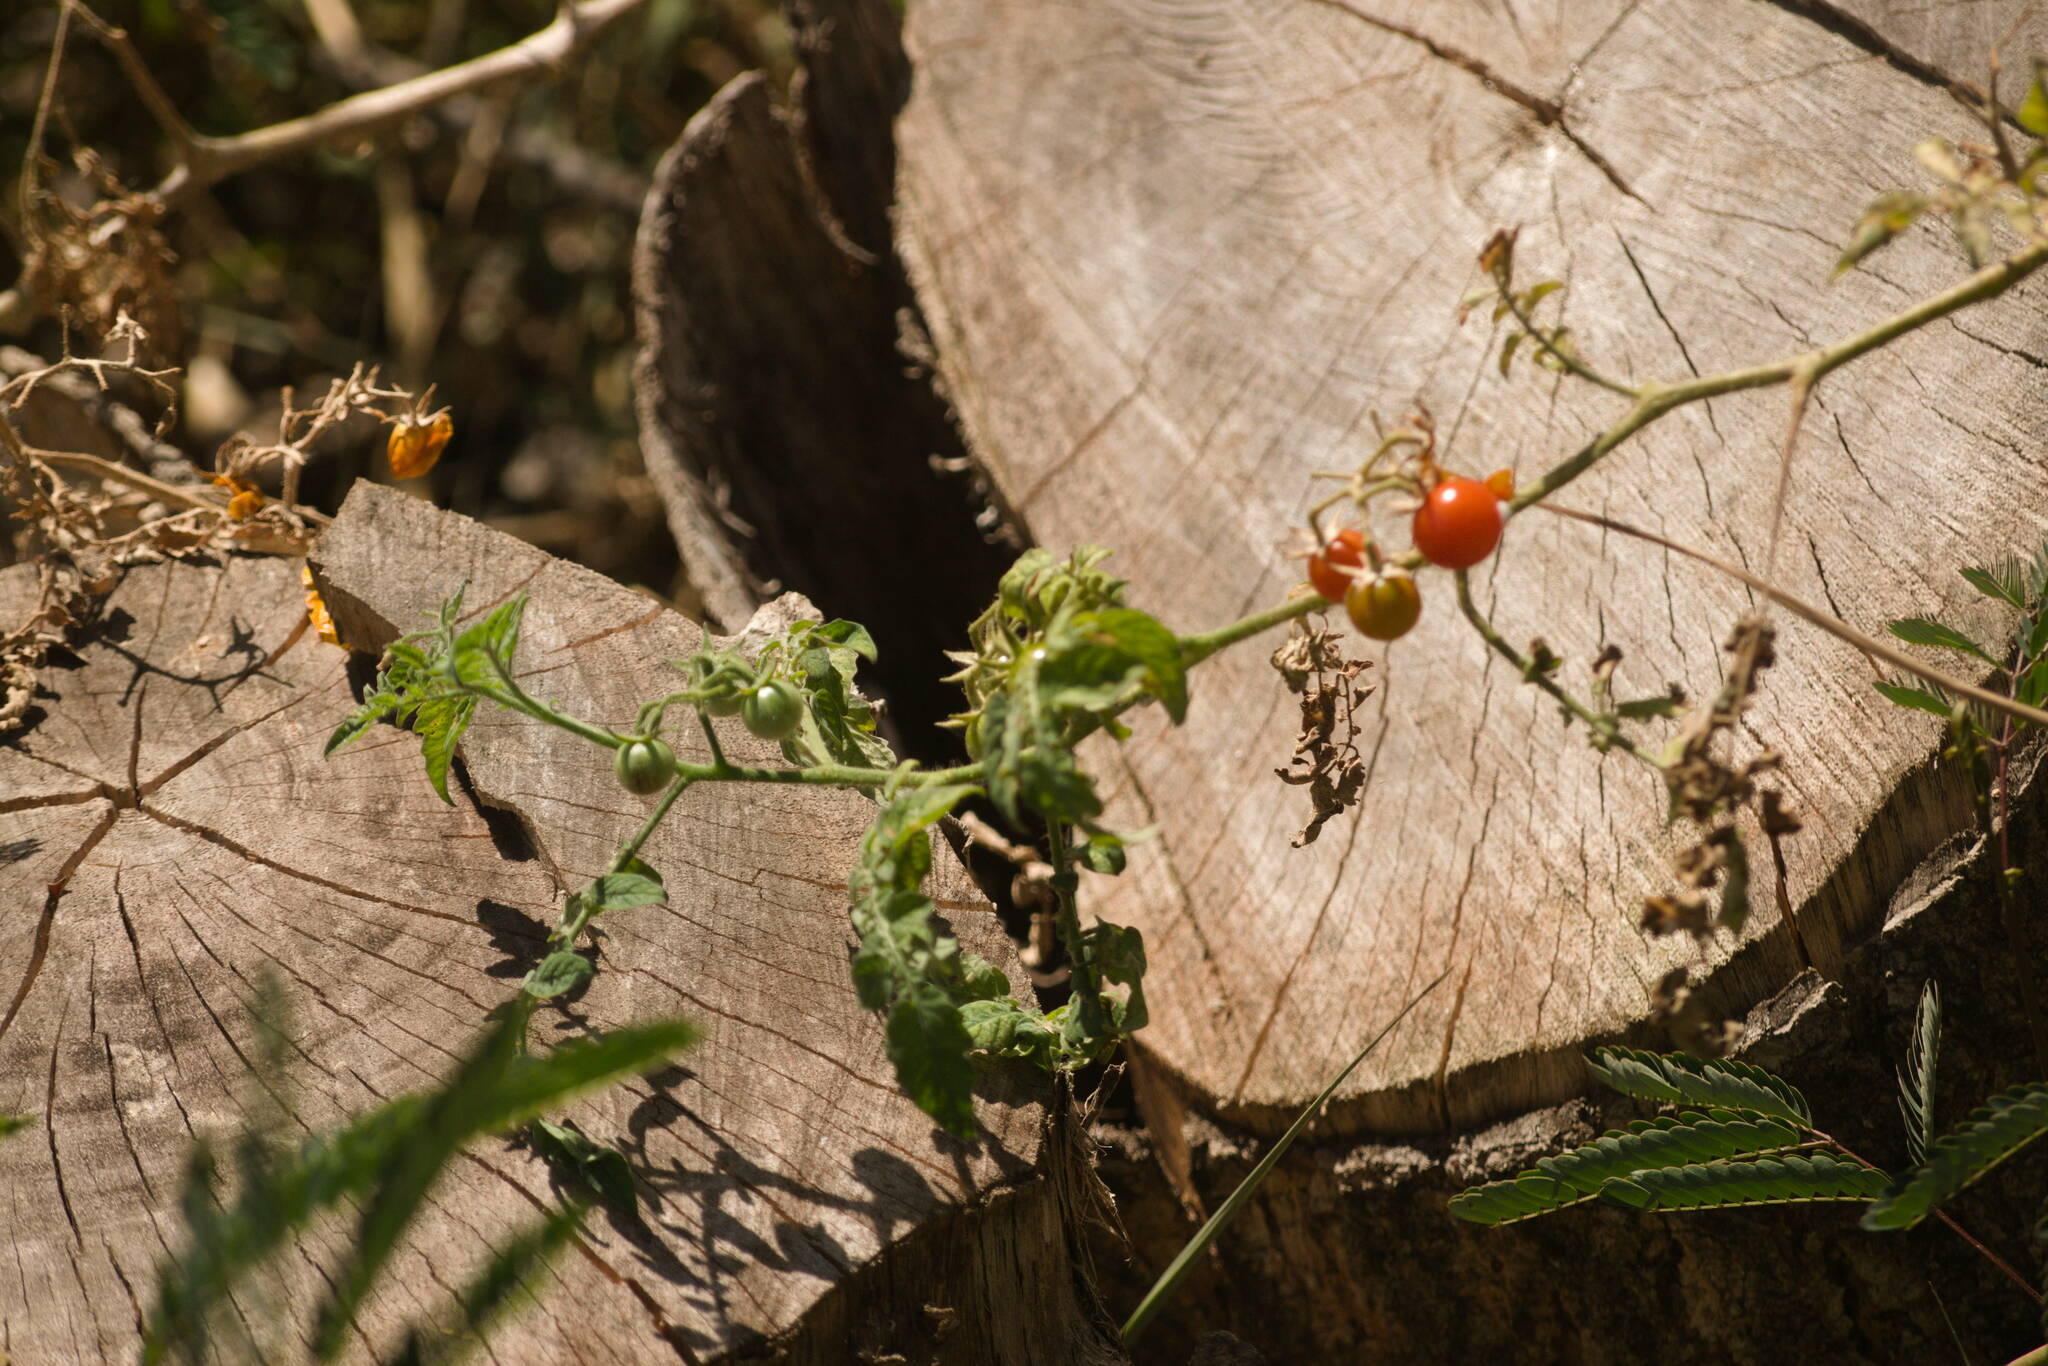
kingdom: Plantae
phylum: Tracheophyta
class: Magnoliopsida
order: Solanales
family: Solanaceae
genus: Solanum
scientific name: Solanum lycopersicum
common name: Garden tomato
